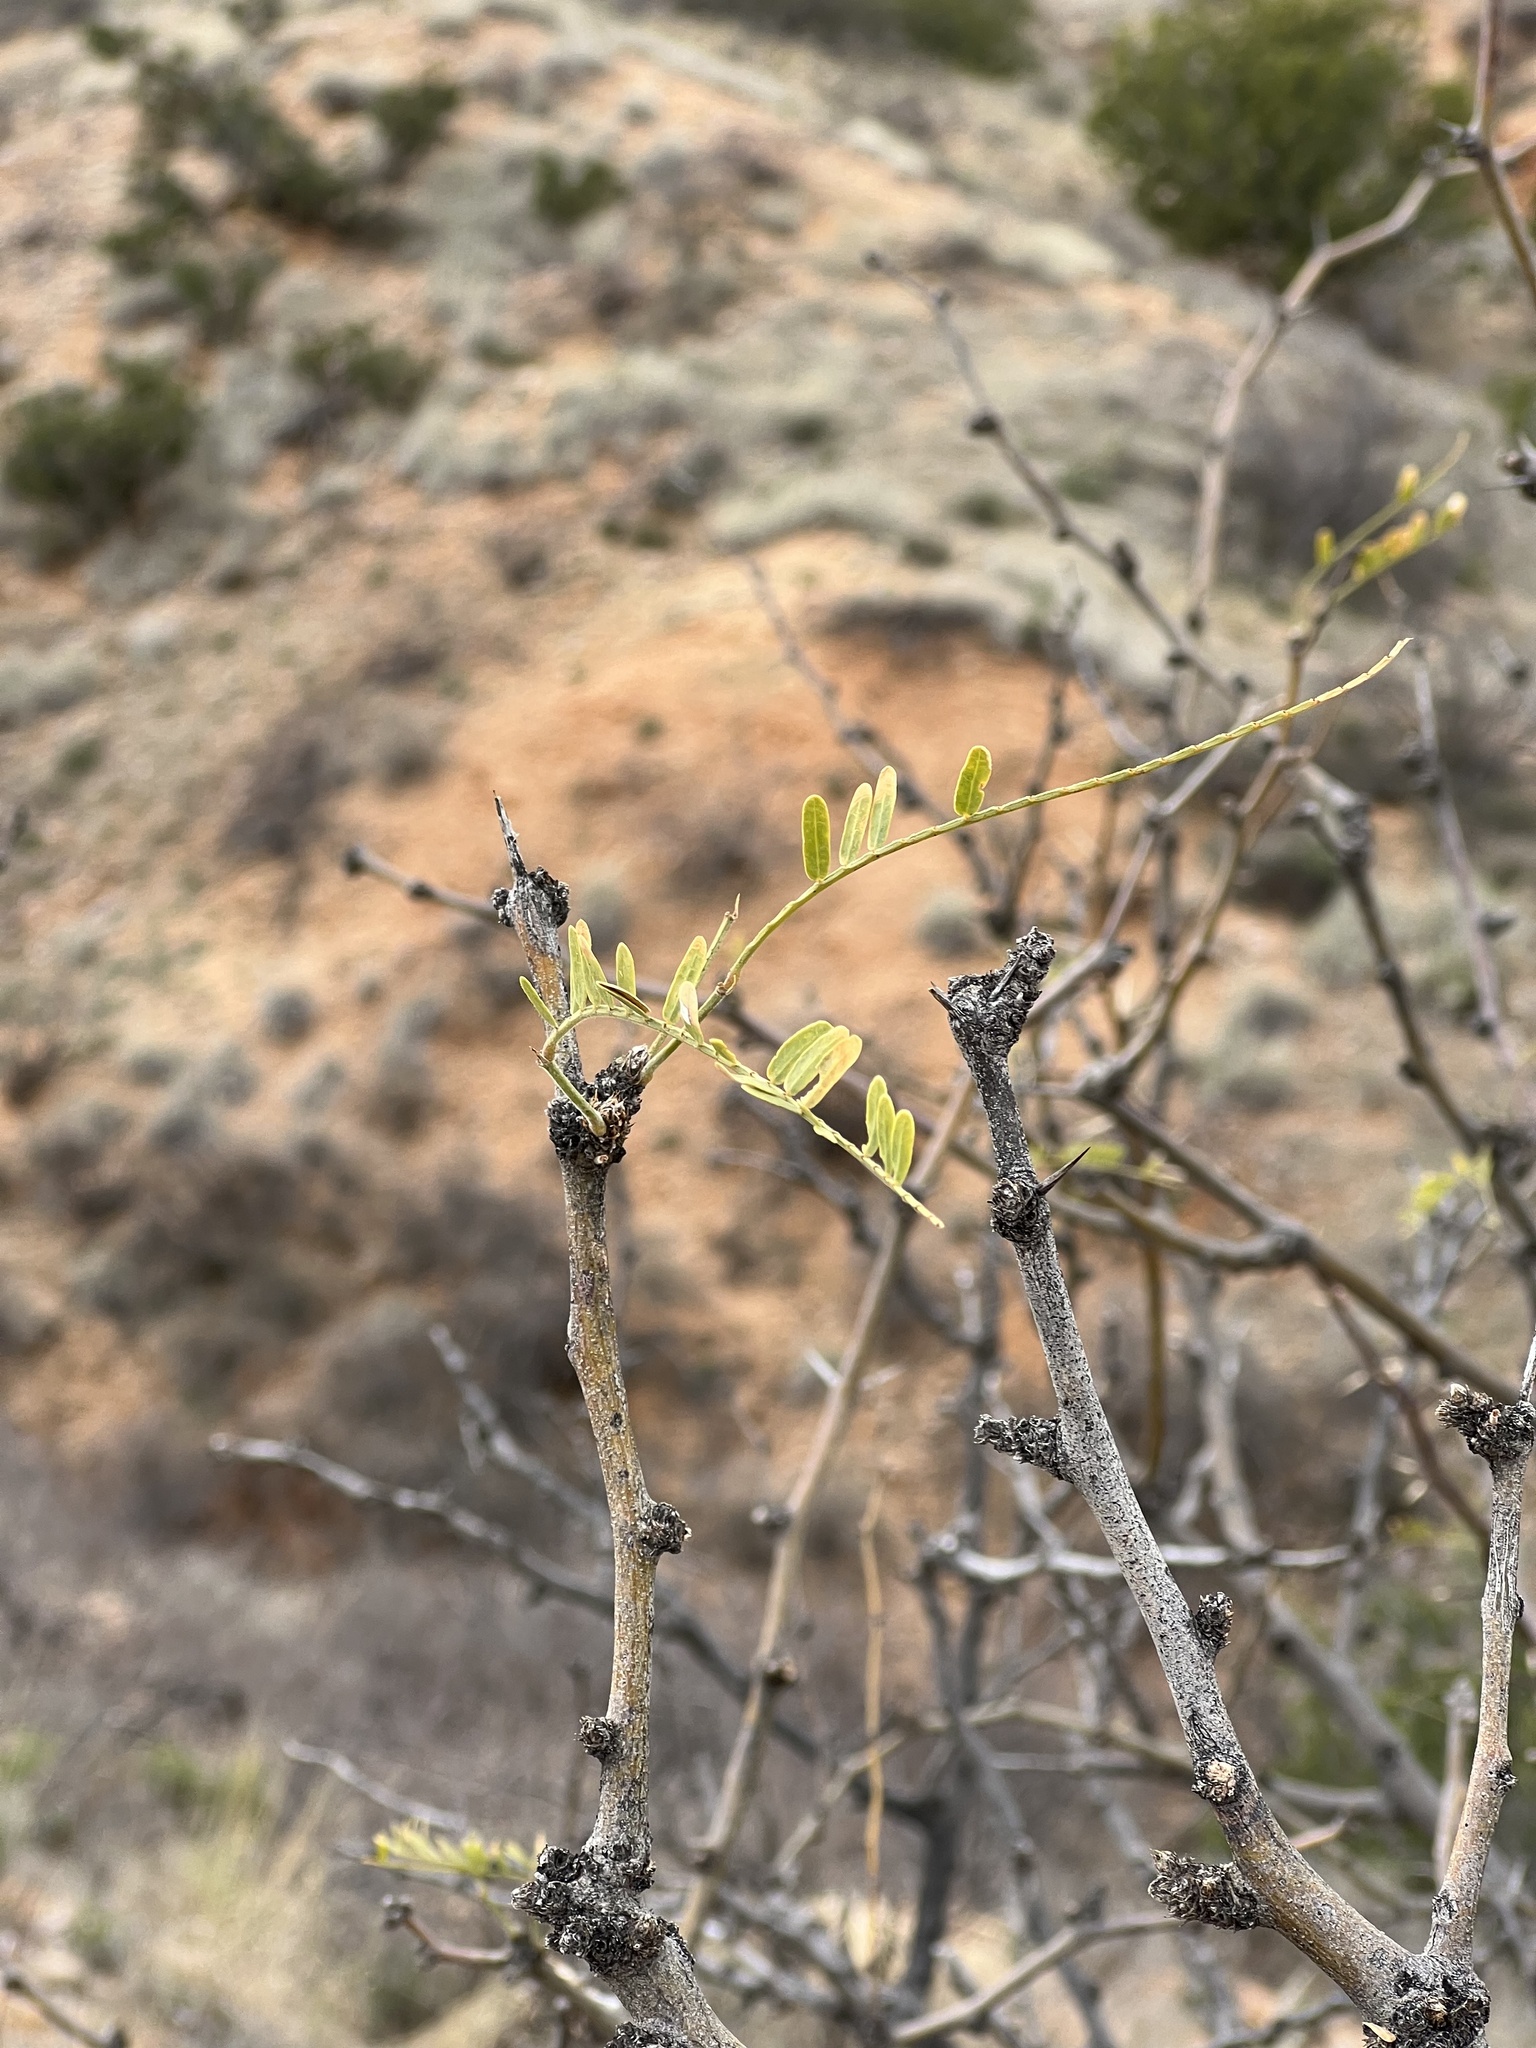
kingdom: Plantae
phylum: Tracheophyta
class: Magnoliopsida
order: Fabales
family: Fabaceae
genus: Prosopis
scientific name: Prosopis velutina
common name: Velvet mesquite
